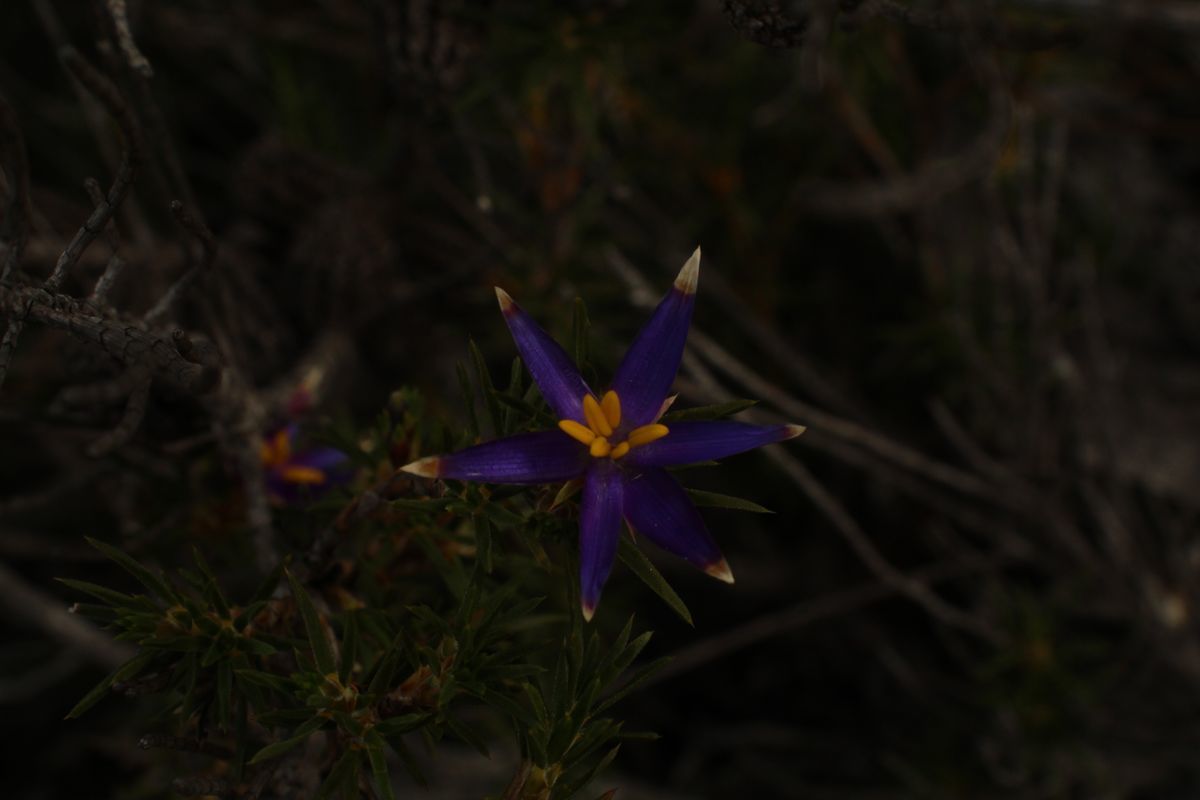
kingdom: Plantae
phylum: Tracheophyta
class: Liliopsida
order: Arecales
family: Dasypogonaceae
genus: Calectasia
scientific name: Calectasia valida
